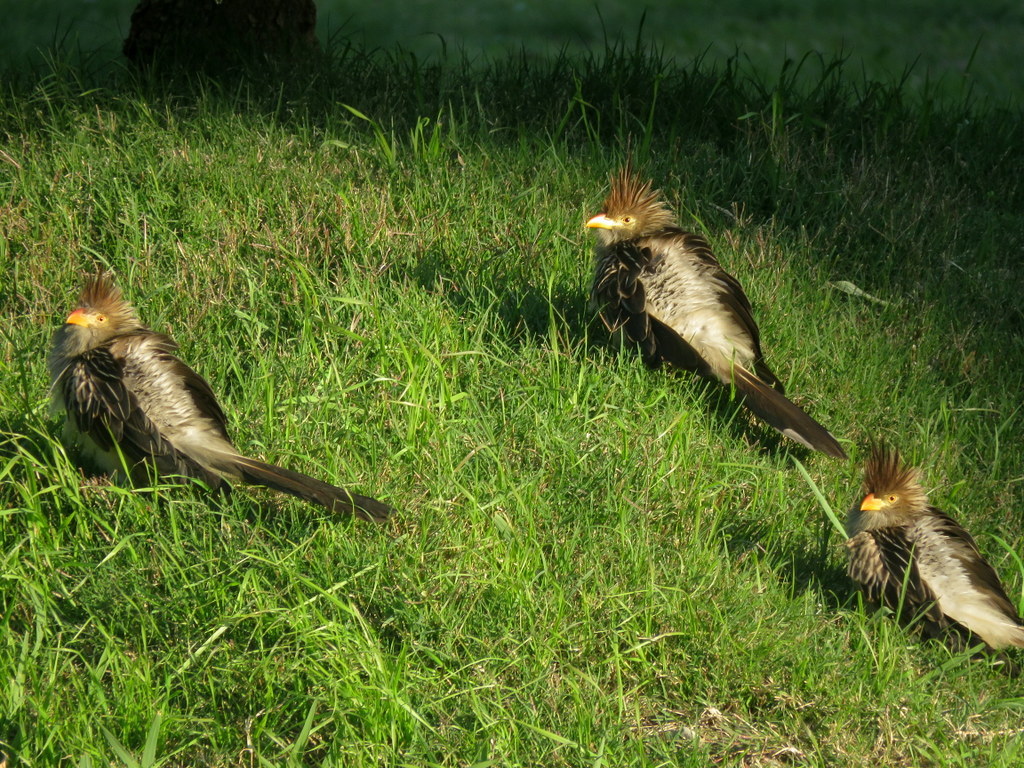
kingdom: Animalia
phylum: Chordata
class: Aves
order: Cuculiformes
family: Cuculidae
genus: Guira
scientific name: Guira guira
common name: Guira cuckoo
